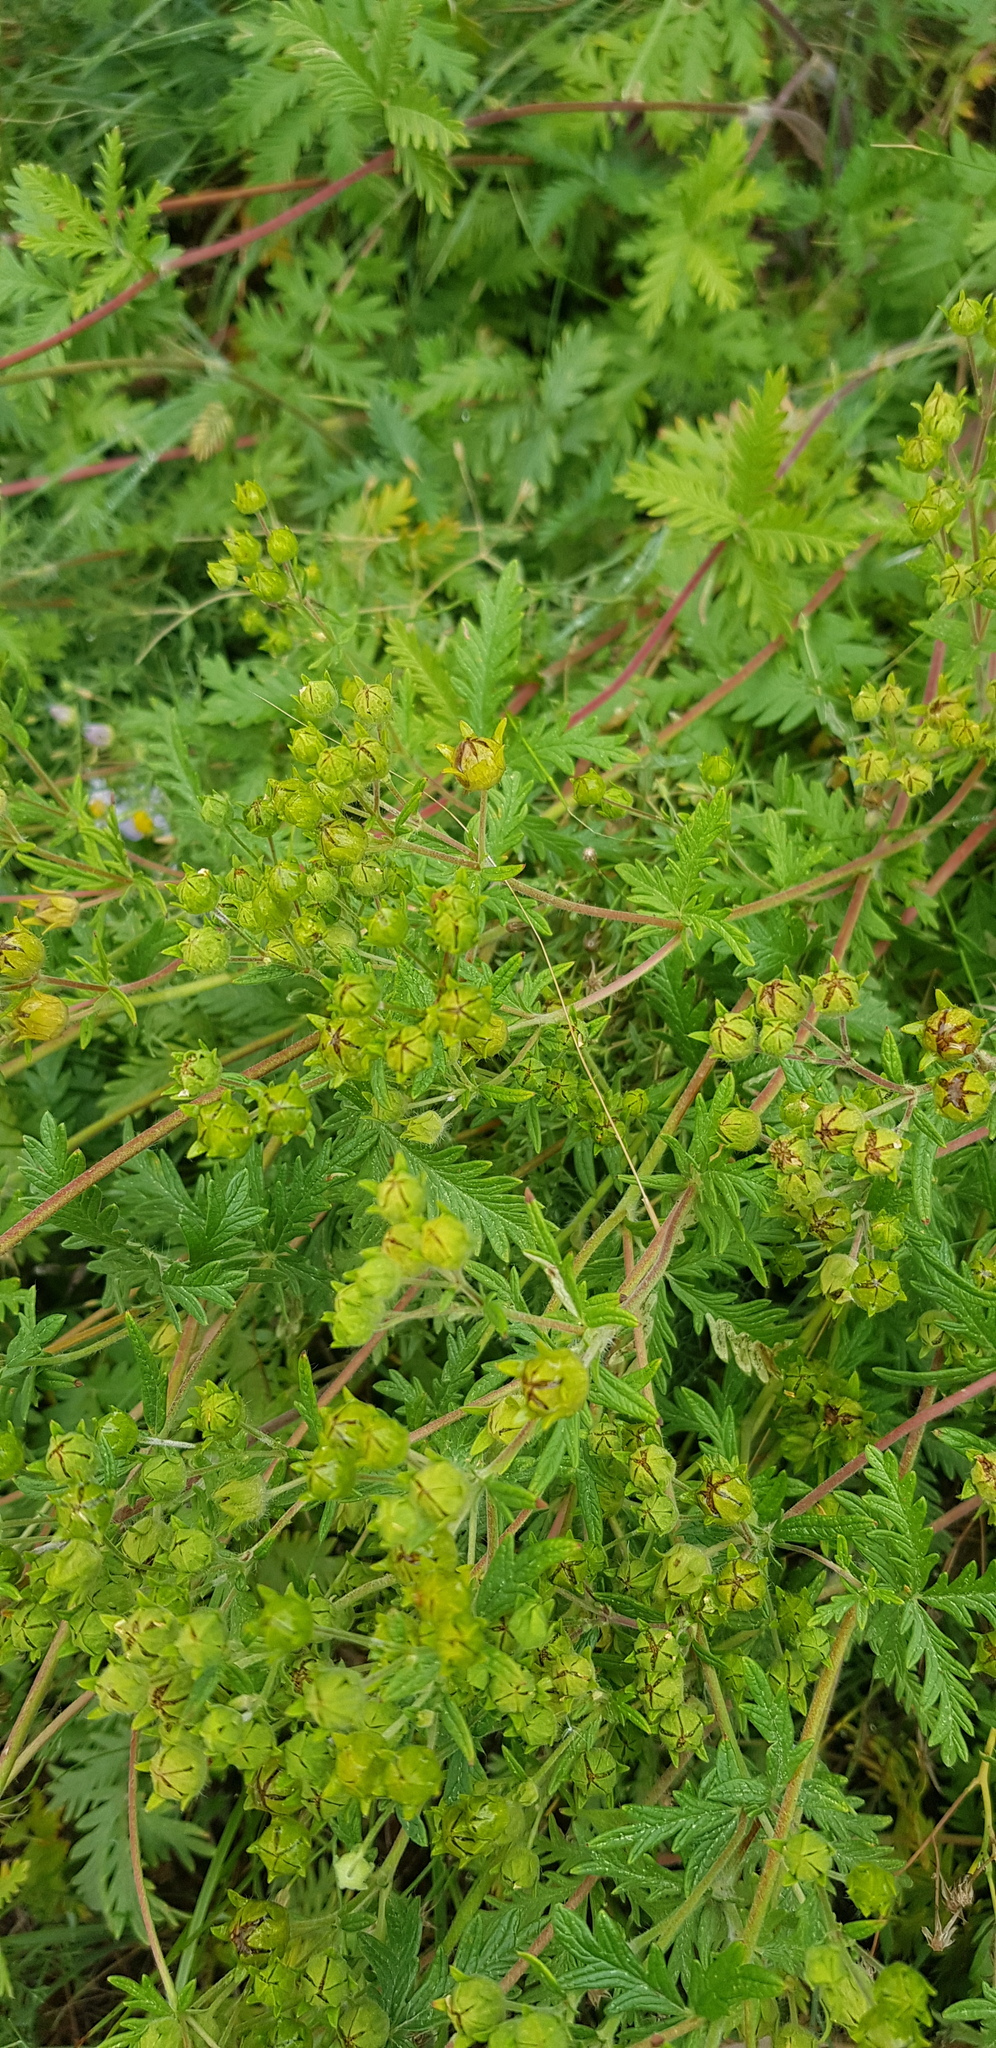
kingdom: Plantae
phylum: Tracheophyta
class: Magnoliopsida
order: Rosales
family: Rosaceae
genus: Potentilla
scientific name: Potentilla tanacetifolia
